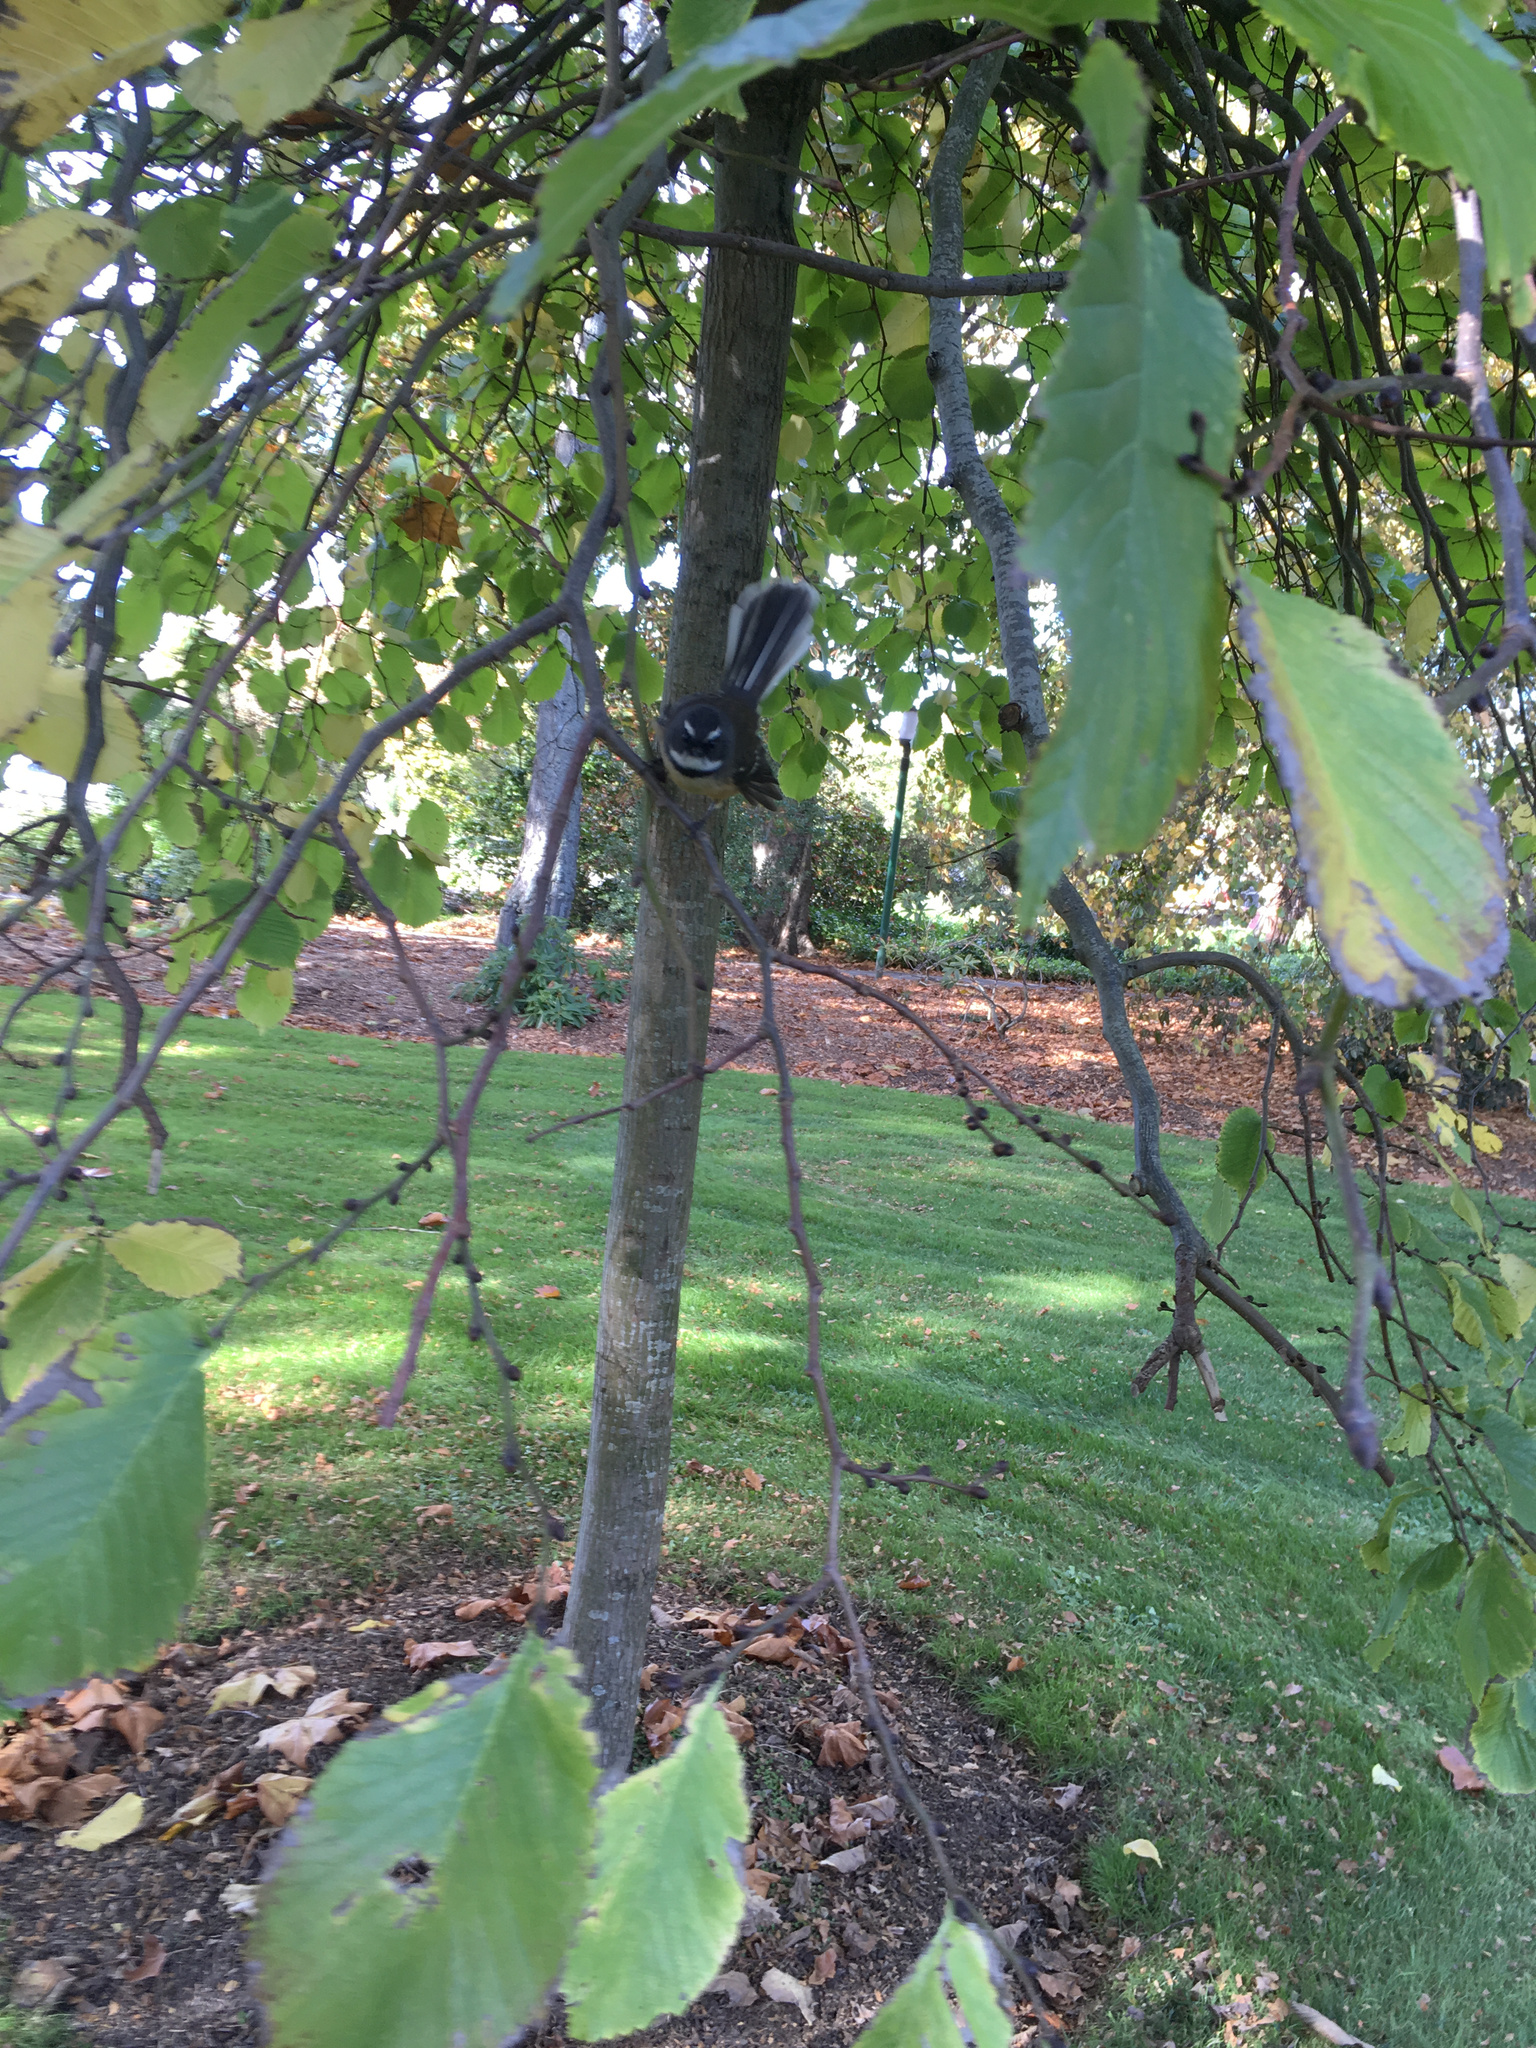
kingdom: Animalia
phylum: Chordata
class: Aves
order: Passeriformes
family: Rhipiduridae
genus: Rhipidura
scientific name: Rhipidura fuliginosa
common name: New zealand fantail
